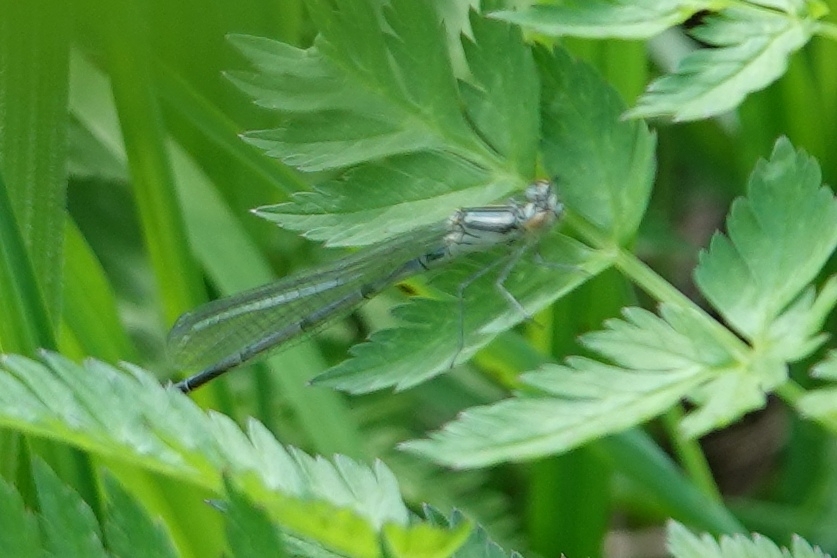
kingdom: Animalia
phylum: Arthropoda
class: Insecta
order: Odonata
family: Coenagrionidae
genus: Coenagrion
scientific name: Coenagrion puella
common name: Azure damselfly
